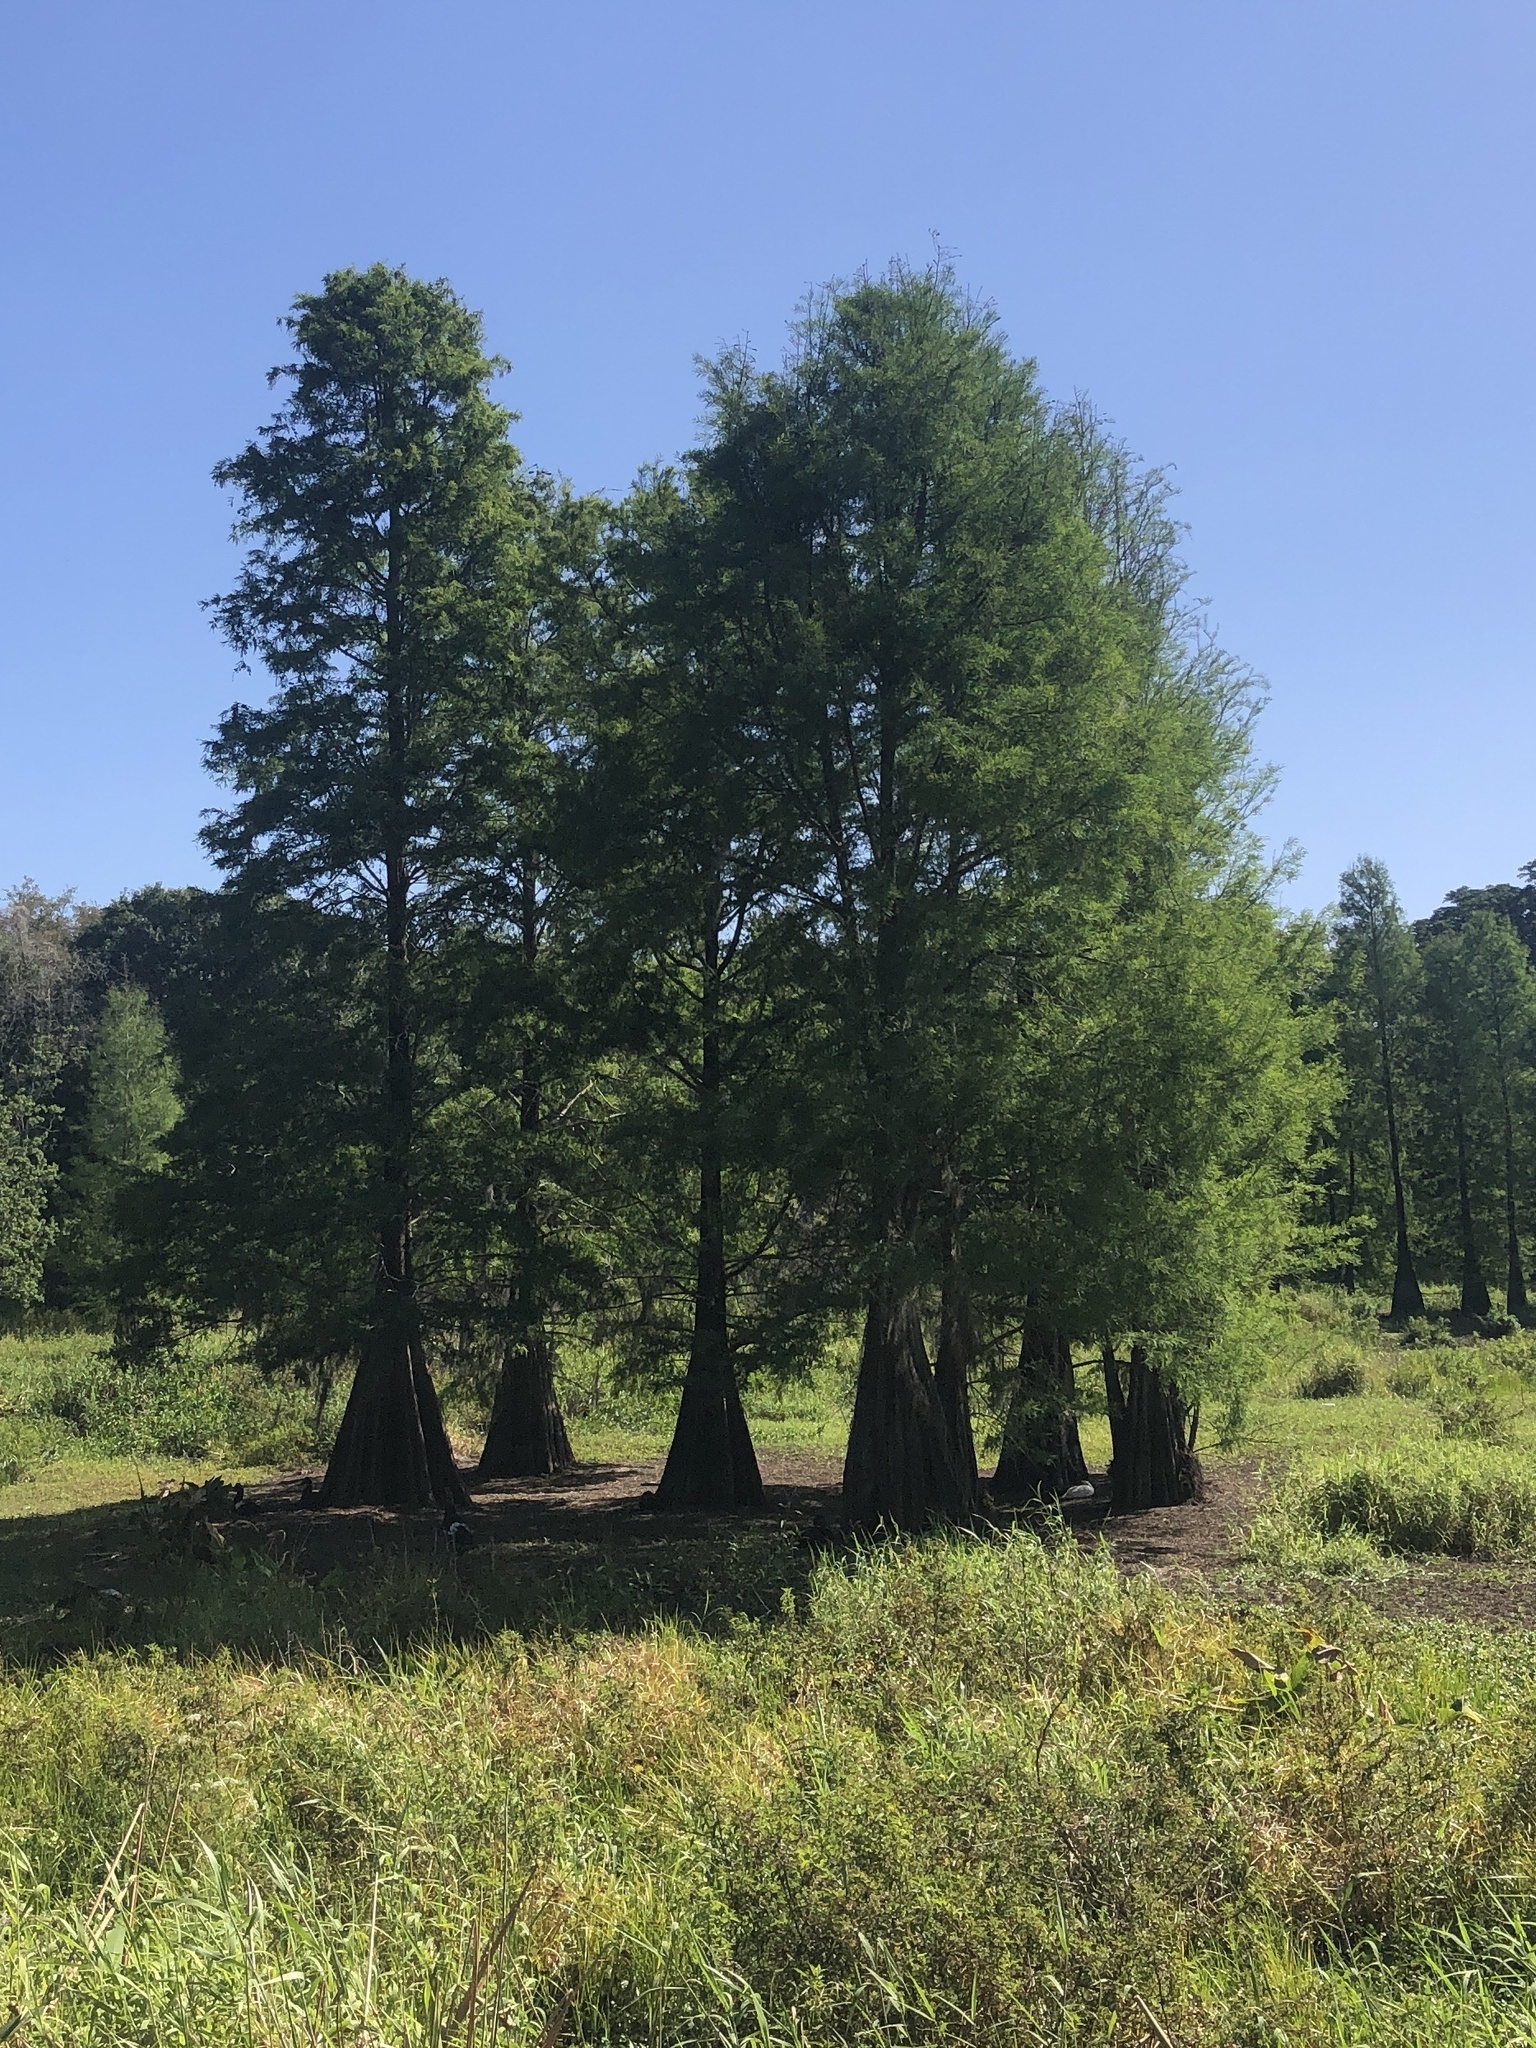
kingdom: Plantae
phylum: Tracheophyta
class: Pinopsida
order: Pinales
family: Cupressaceae
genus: Taxodium
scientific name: Taxodium distichum
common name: Bald cypress
